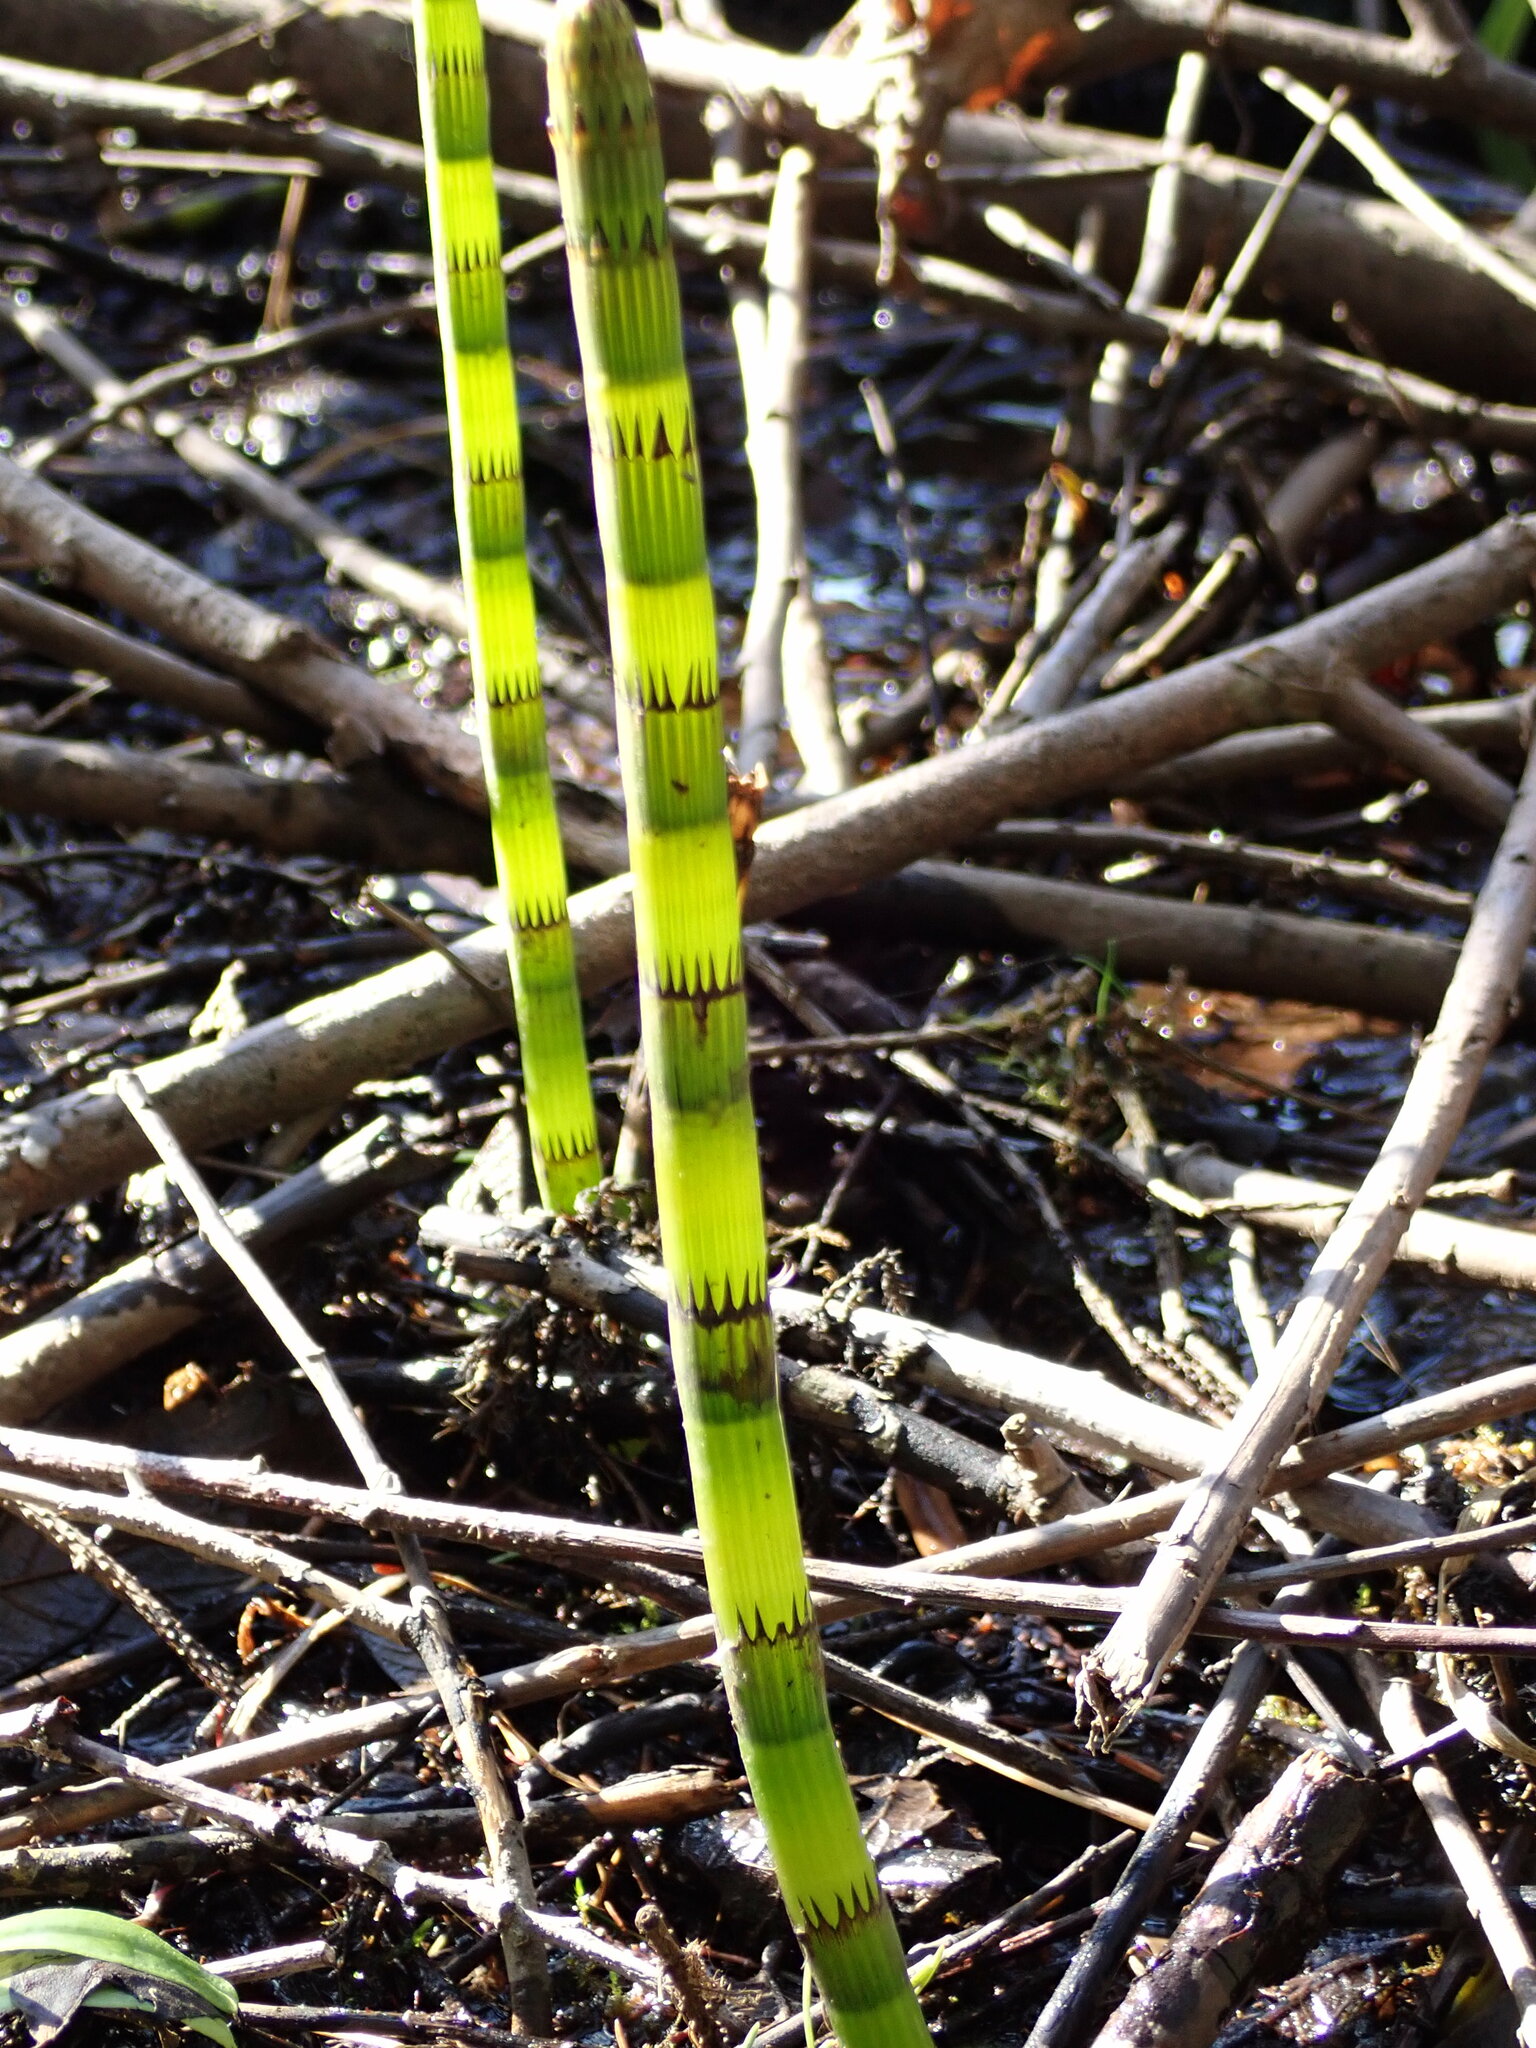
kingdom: Plantae
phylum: Tracheophyta
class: Polypodiopsida
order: Equisetales
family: Equisetaceae
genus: Equisetum
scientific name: Equisetum fluviatile
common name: Water horsetail
